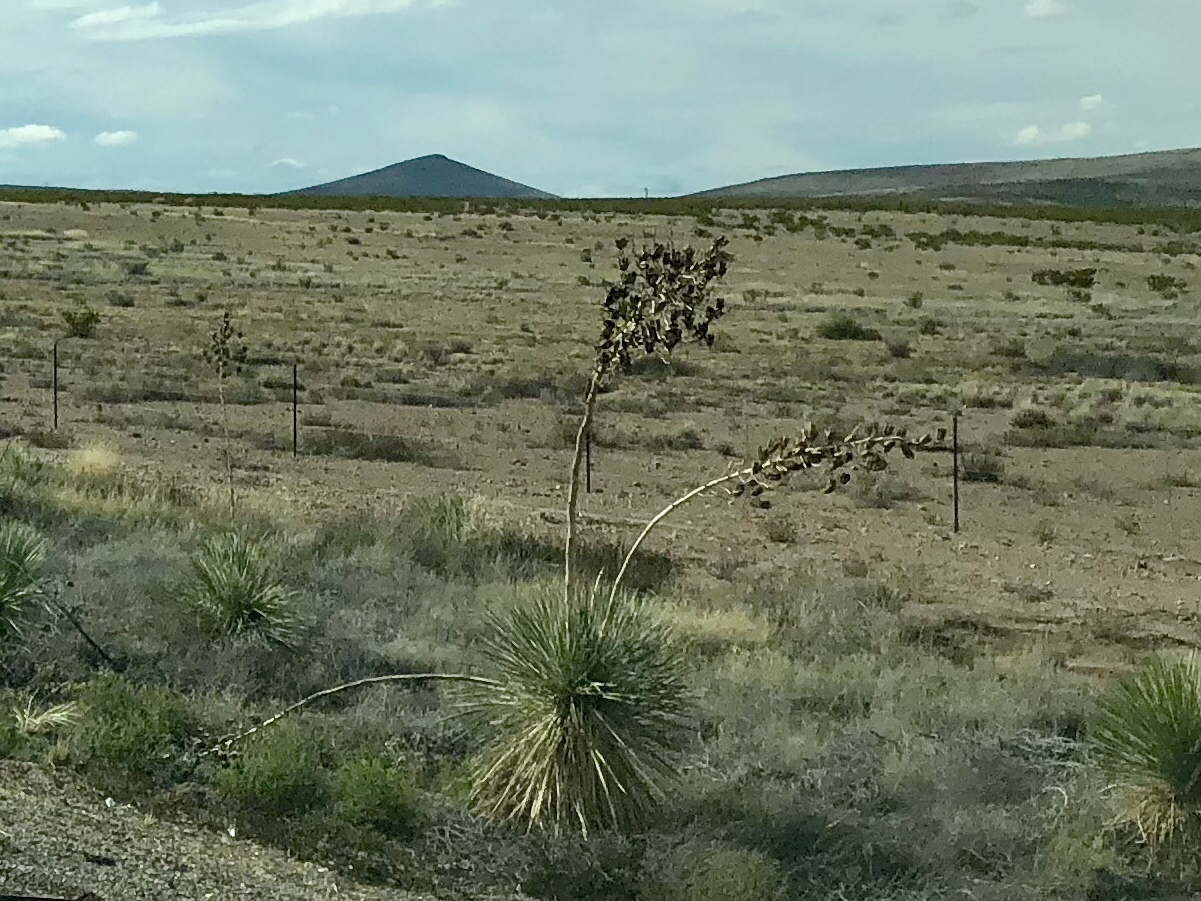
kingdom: Plantae
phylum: Tracheophyta
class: Liliopsida
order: Asparagales
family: Asparagaceae
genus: Yucca
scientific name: Yucca elata
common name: Palmella
